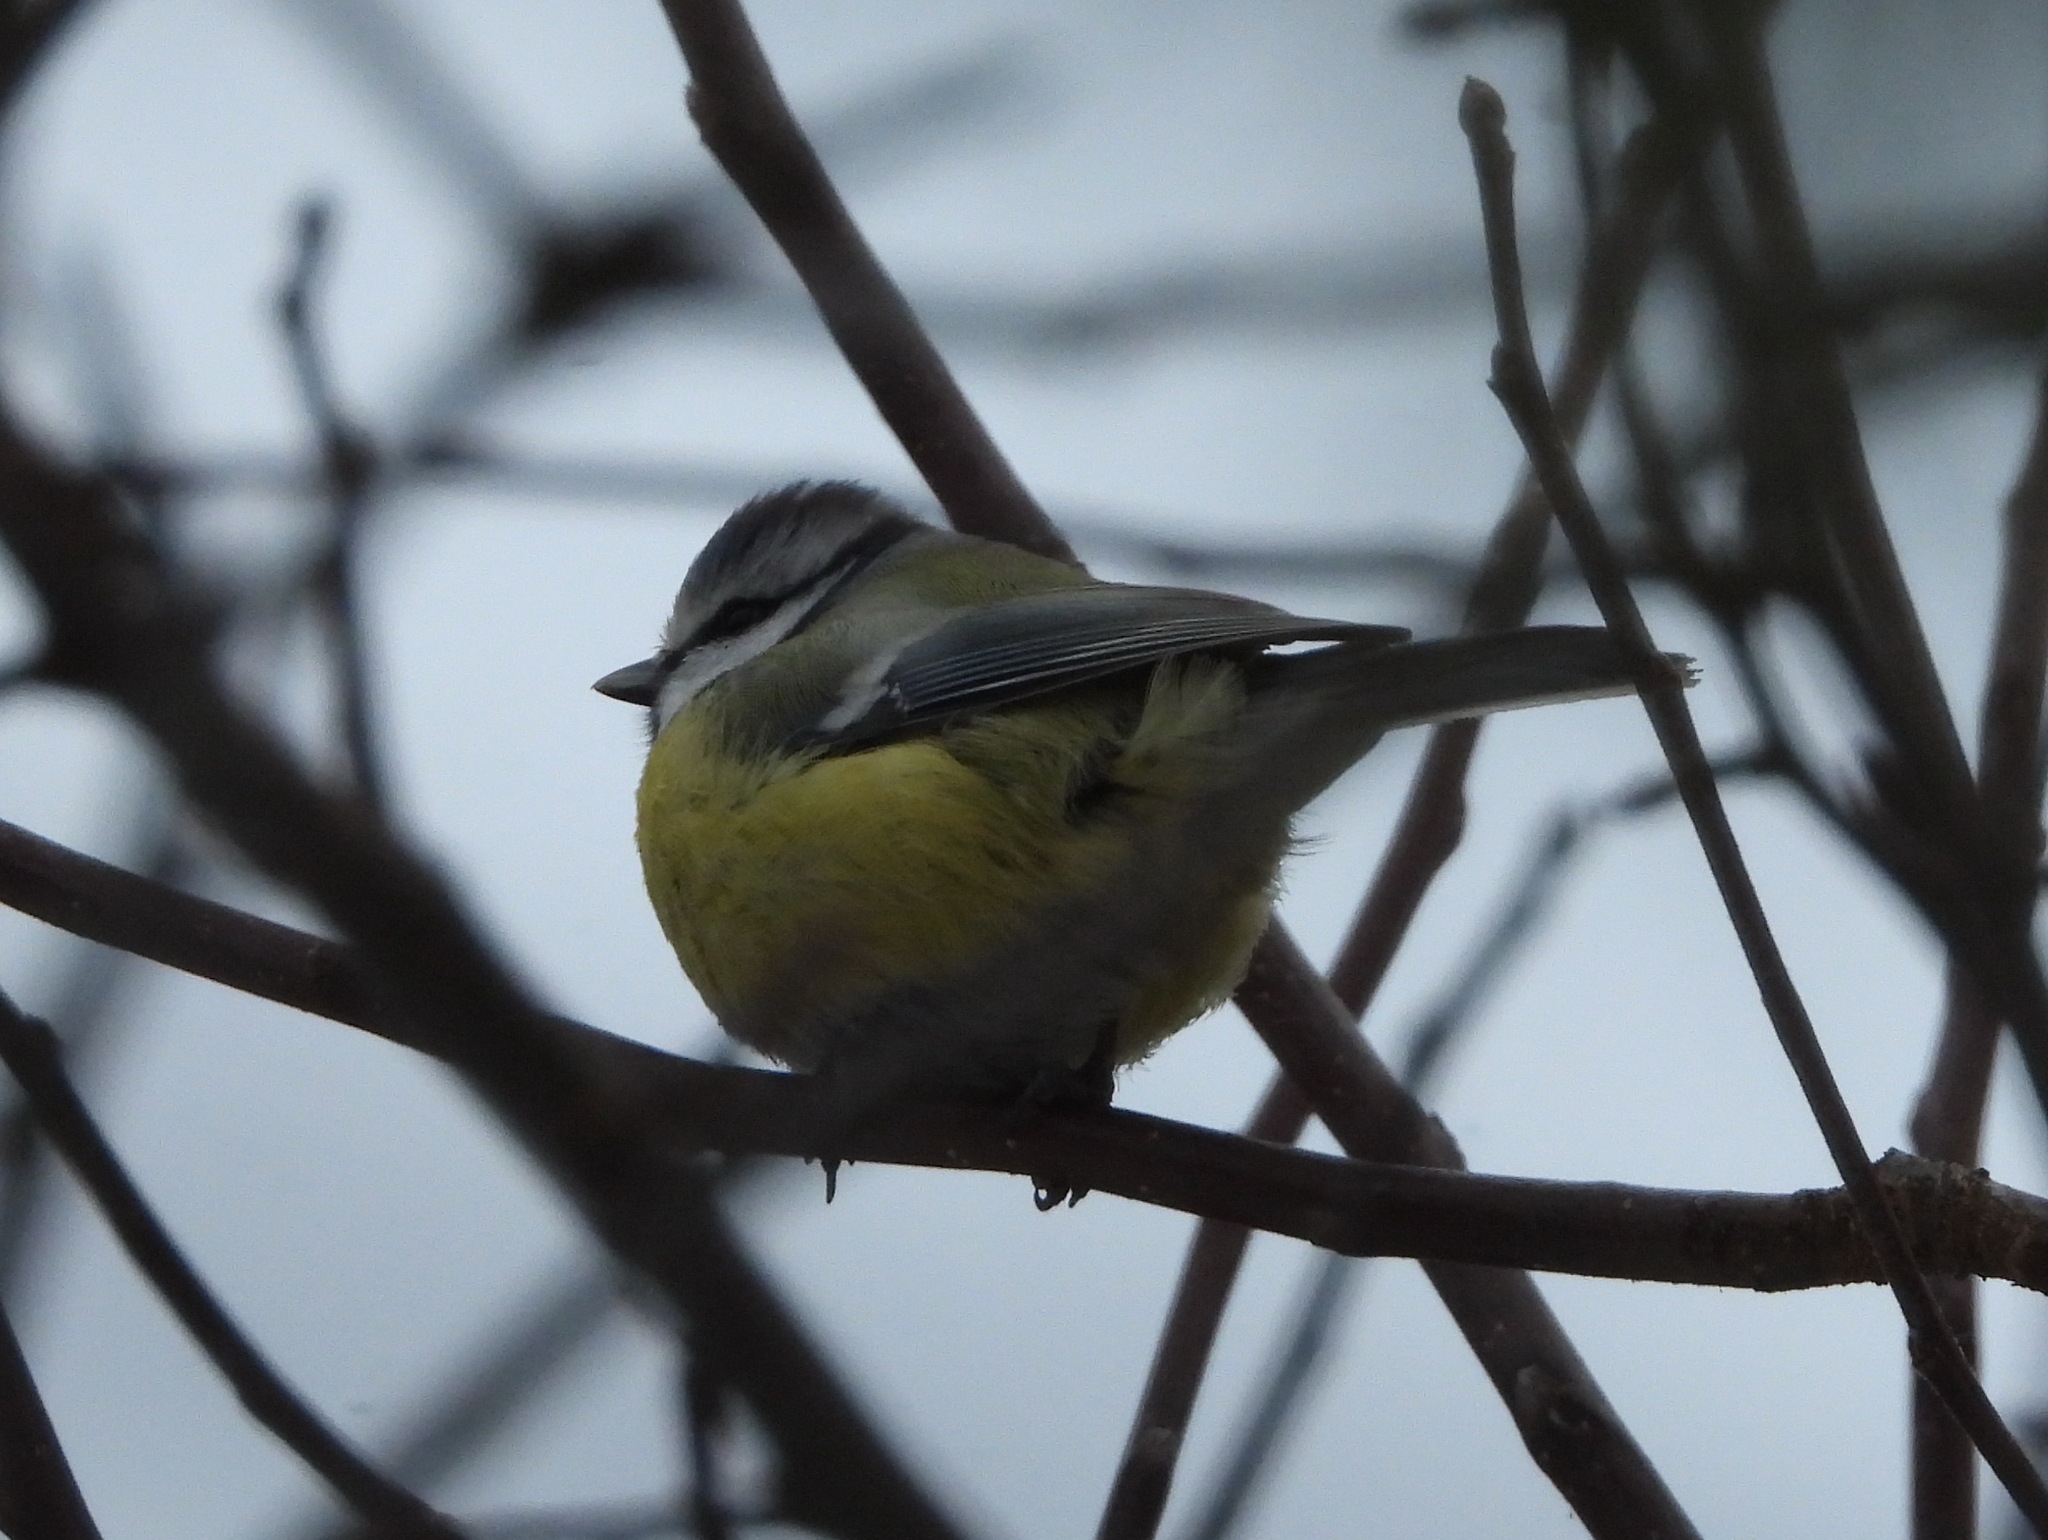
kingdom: Animalia
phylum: Chordata
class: Aves
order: Passeriformes
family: Paridae
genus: Cyanistes
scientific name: Cyanistes caeruleus
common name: Eurasian blue tit
